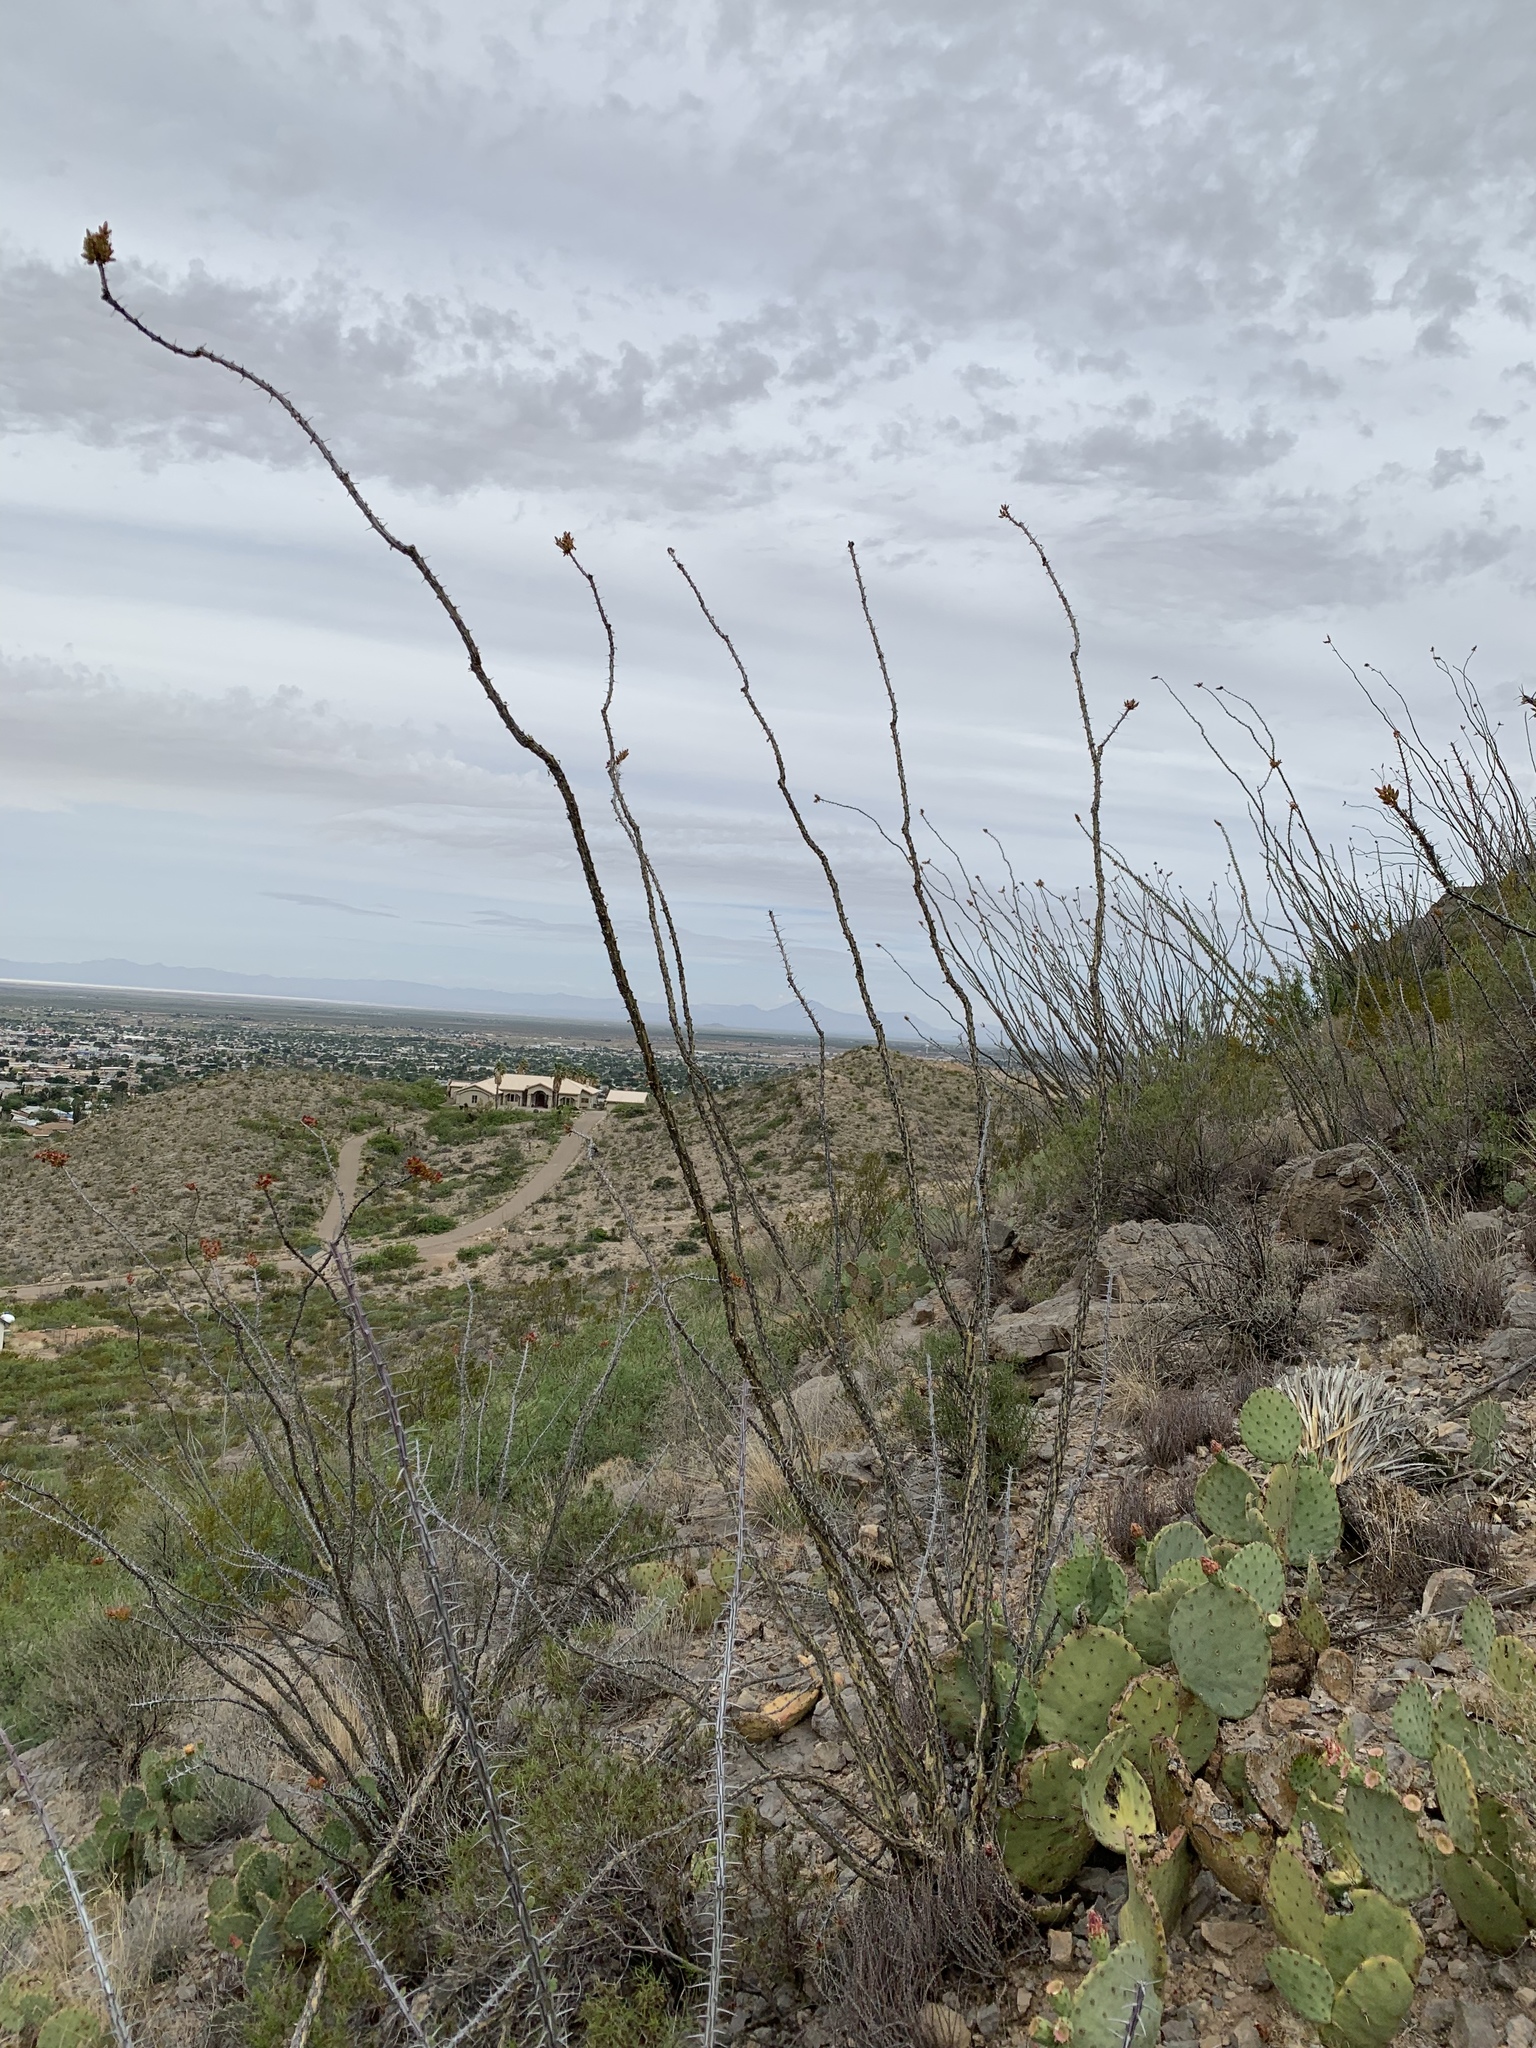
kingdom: Plantae
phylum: Tracheophyta
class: Magnoliopsida
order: Ericales
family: Fouquieriaceae
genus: Fouquieria
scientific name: Fouquieria splendens
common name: Vine-cactus
